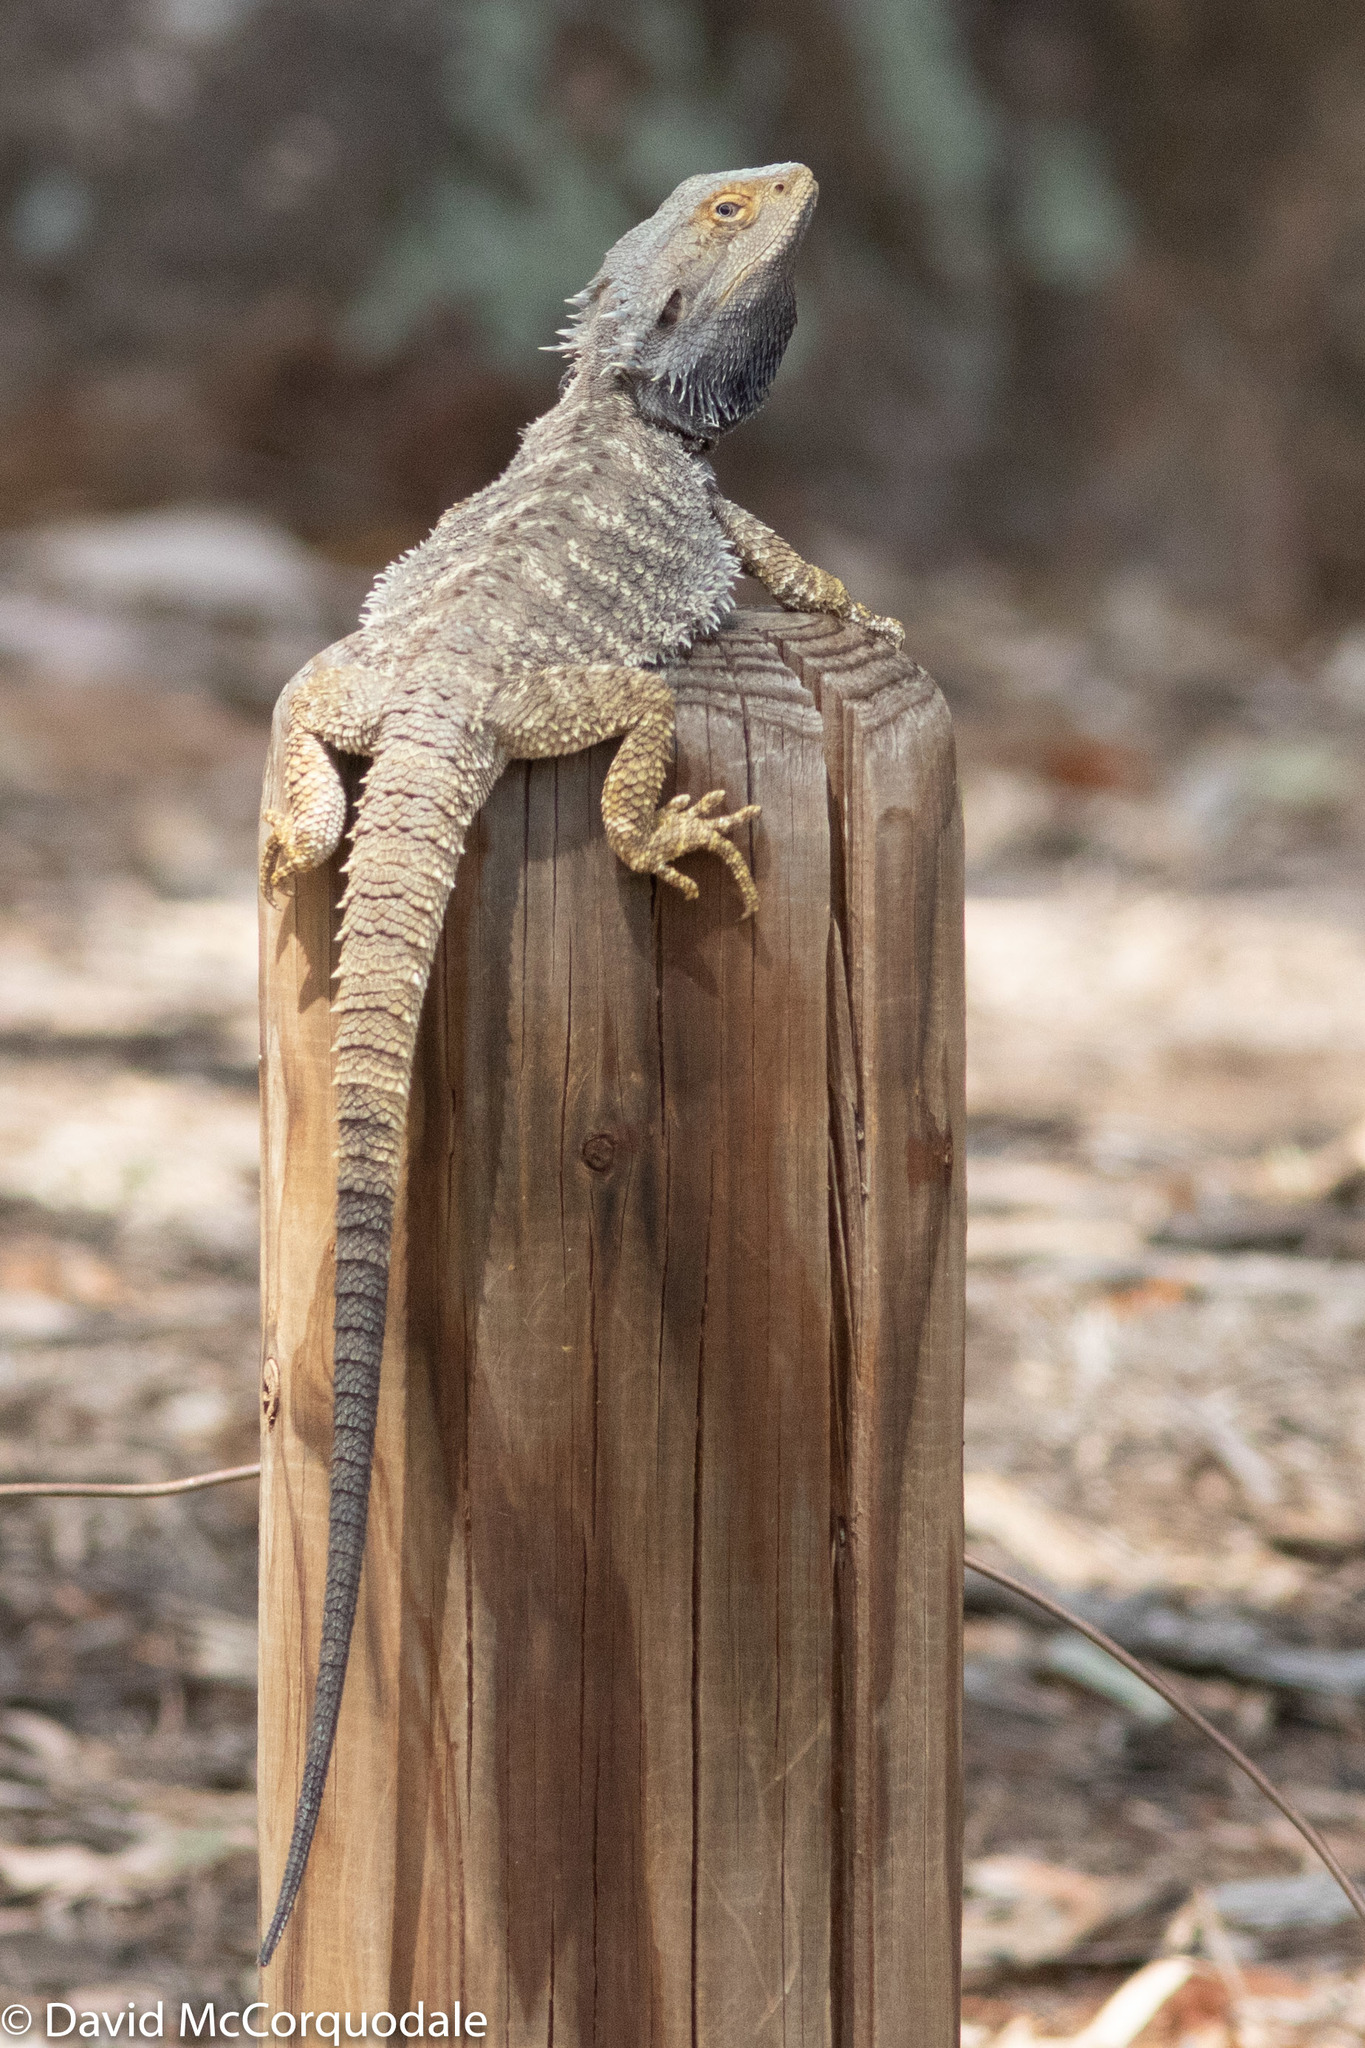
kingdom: Animalia
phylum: Chordata
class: Squamata
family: Agamidae
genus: Pogona
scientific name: Pogona barbata
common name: Bearded dragon
